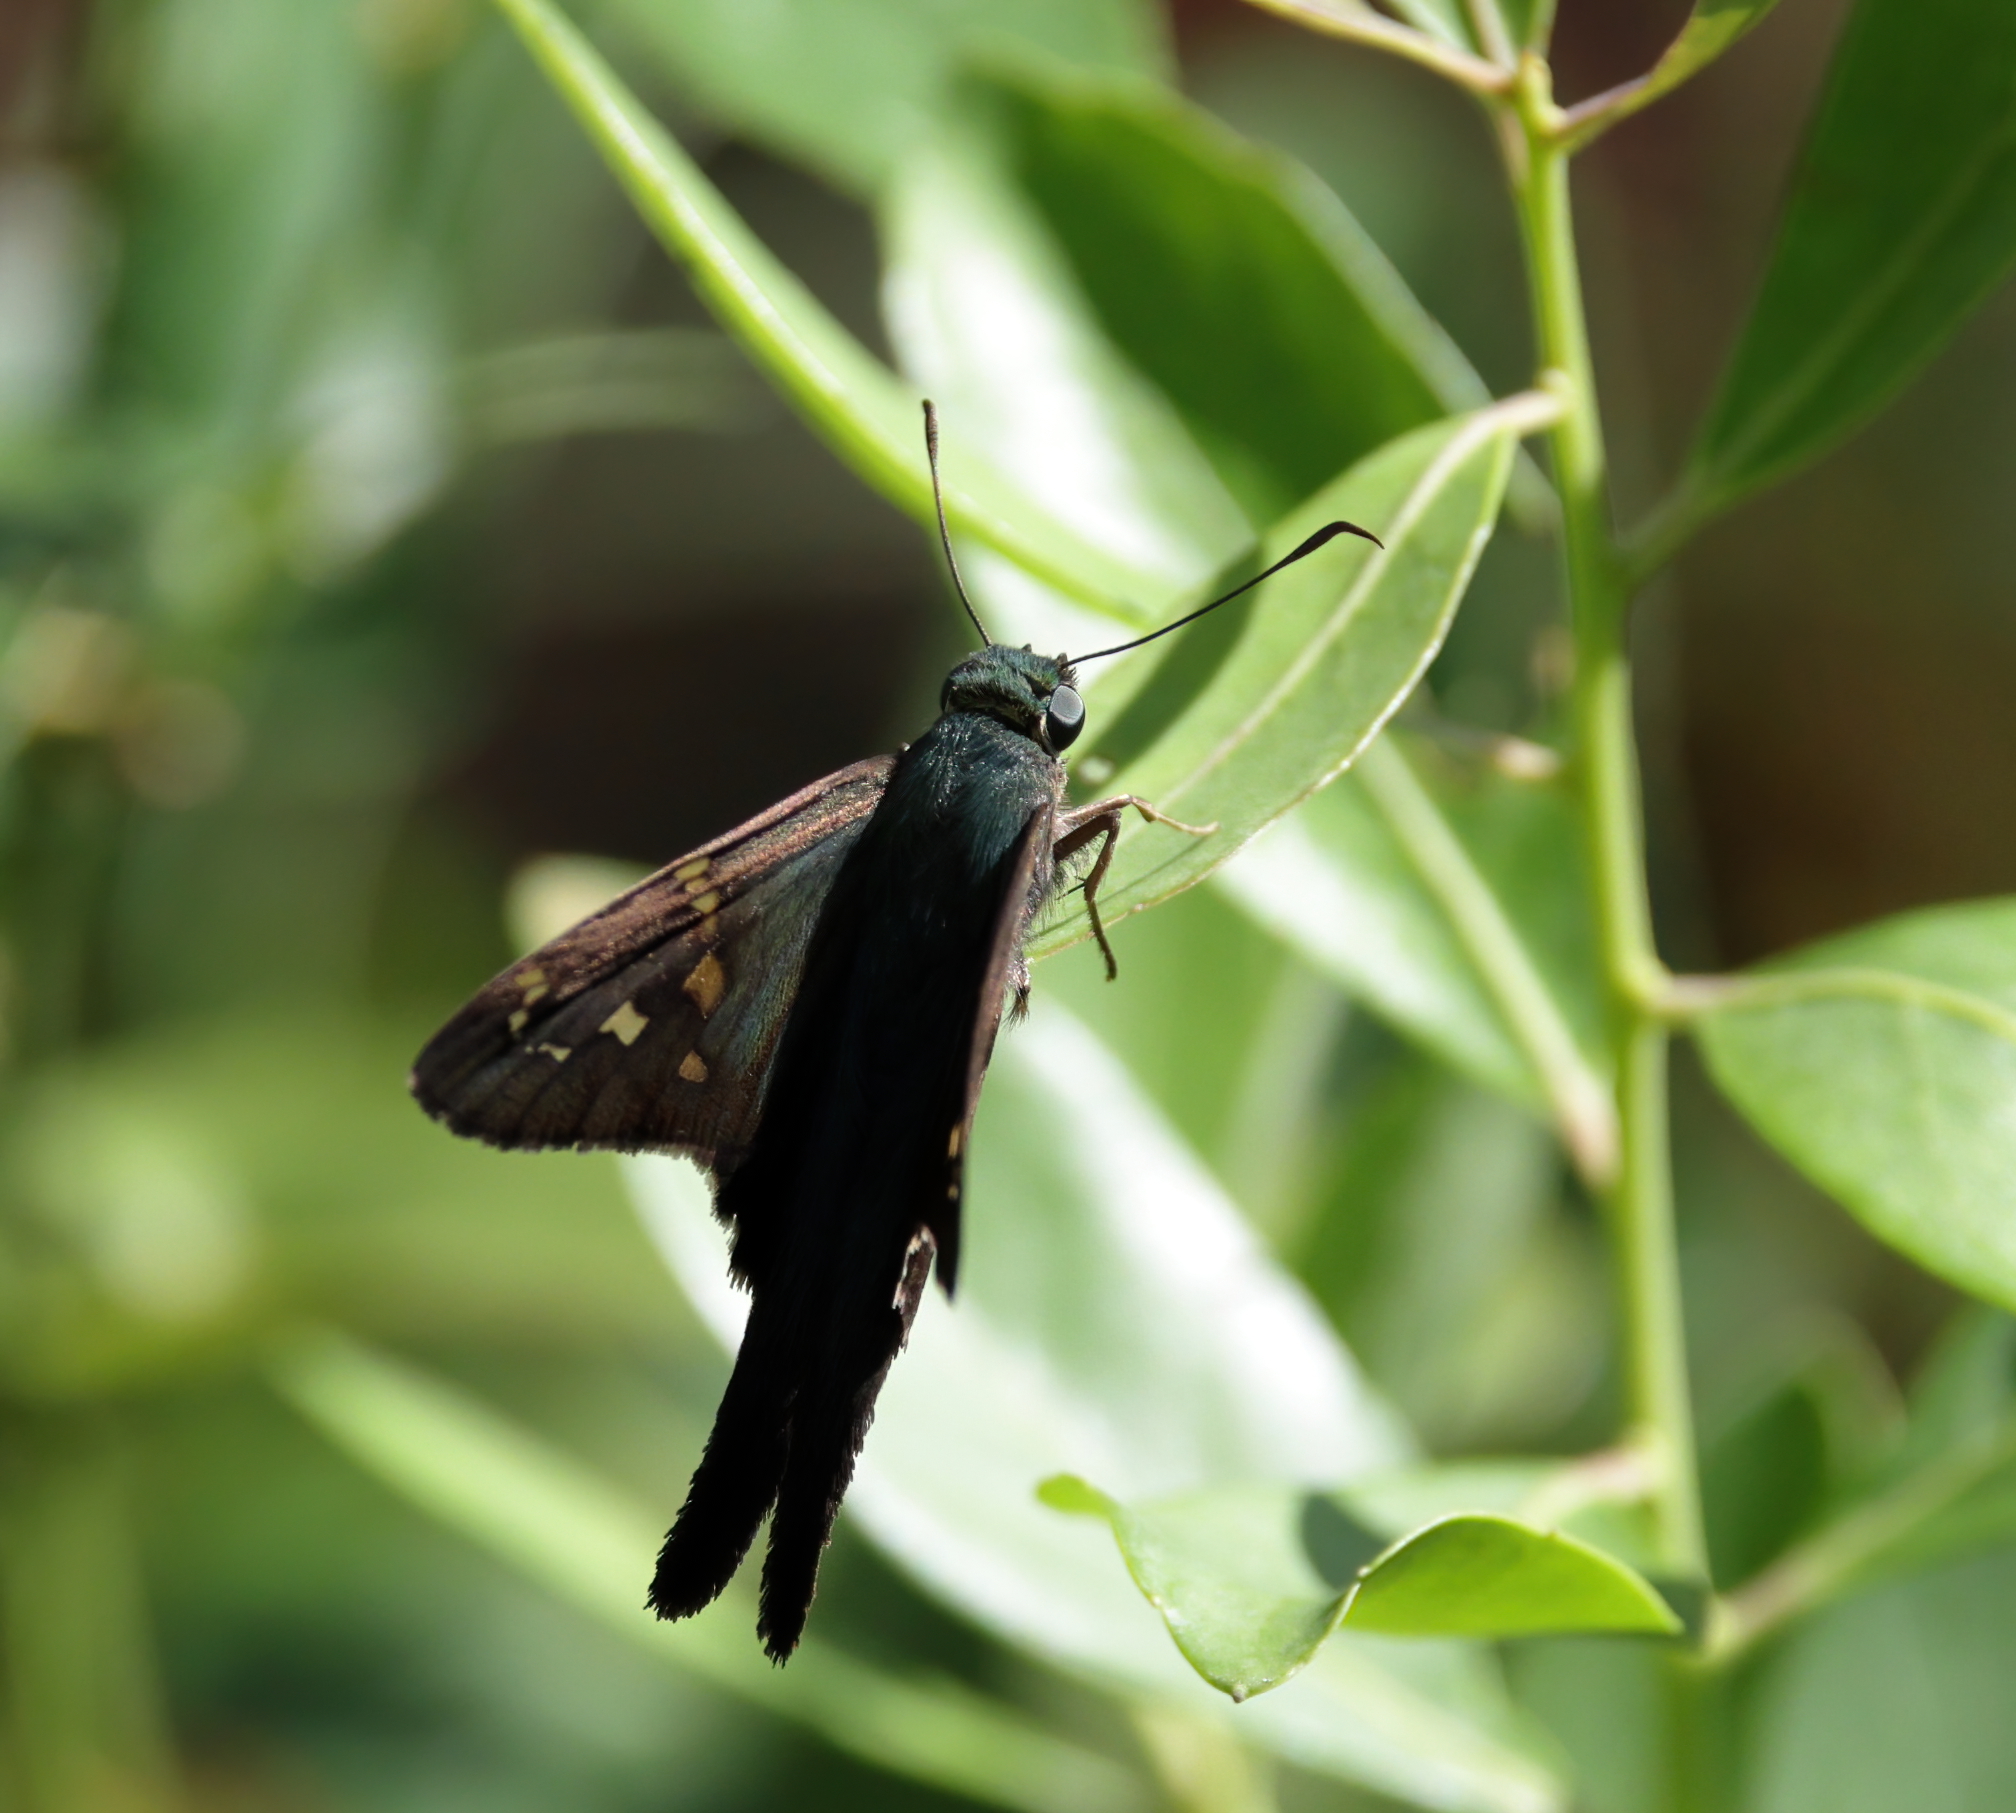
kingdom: Animalia
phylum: Arthropoda
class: Insecta
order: Lepidoptera
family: Hesperiidae
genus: Urbanus
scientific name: Urbanus proteus
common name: Long-tailed skipper
